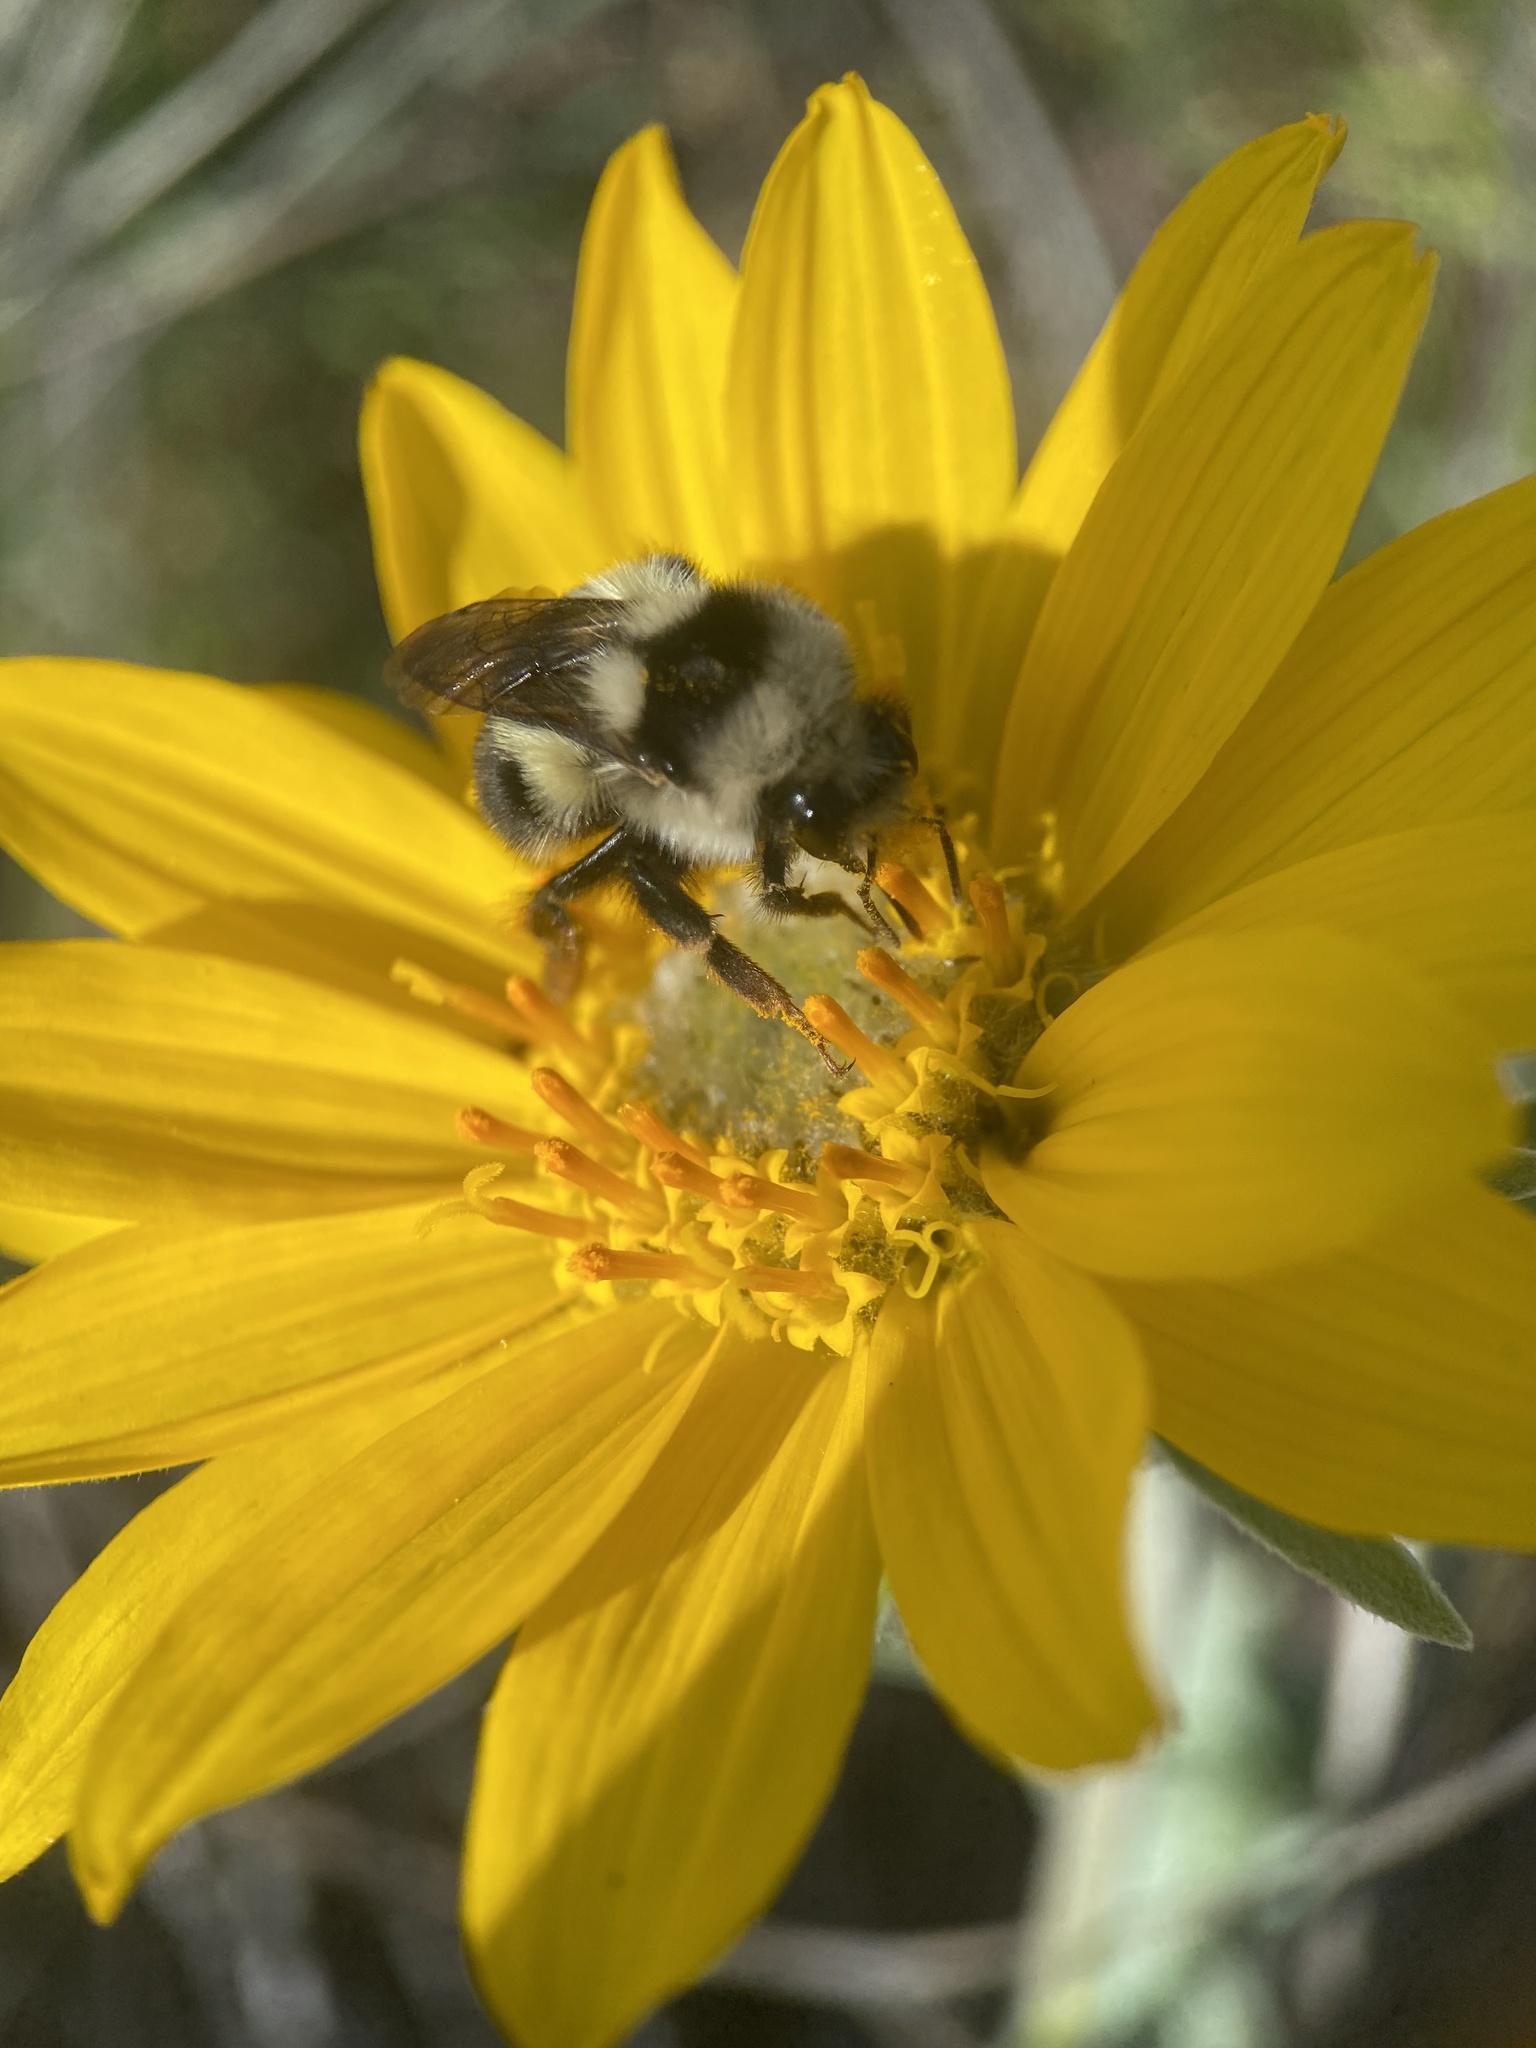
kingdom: Animalia
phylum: Arthropoda
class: Insecta
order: Hymenoptera
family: Apidae
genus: Bombus
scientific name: Bombus vancouverensis
